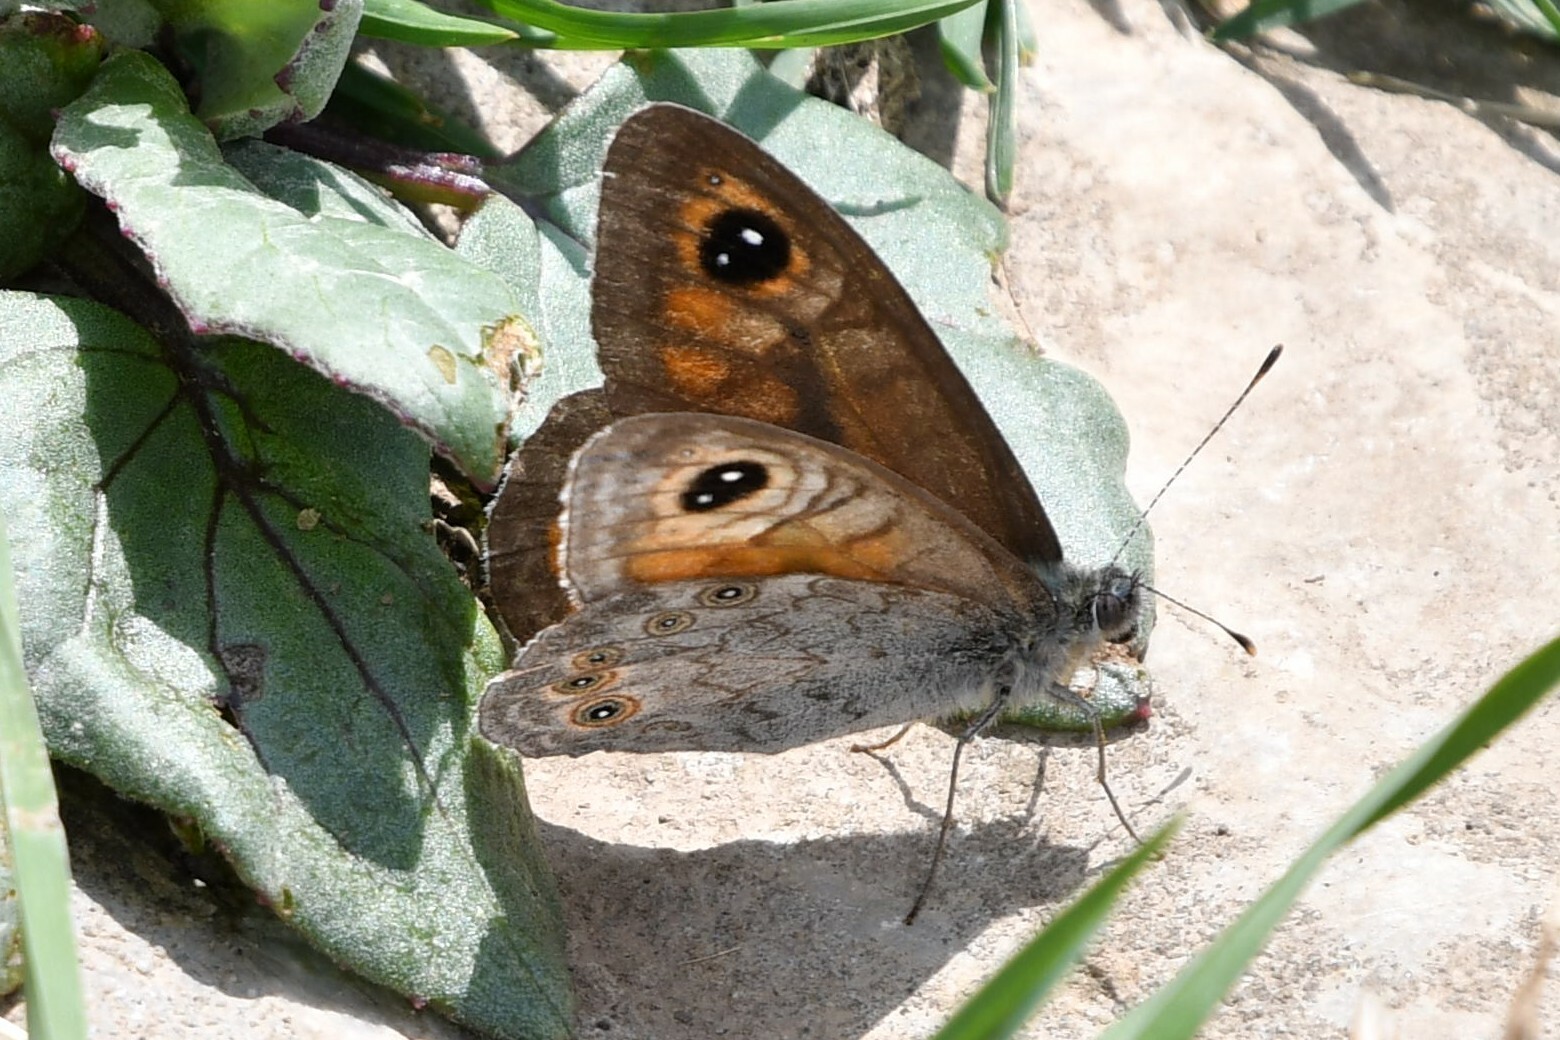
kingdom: Animalia
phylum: Arthropoda
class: Insecta
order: Lepidoptera
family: Nymphalidae
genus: Pararge
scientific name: Pararge Lasiommata maera
